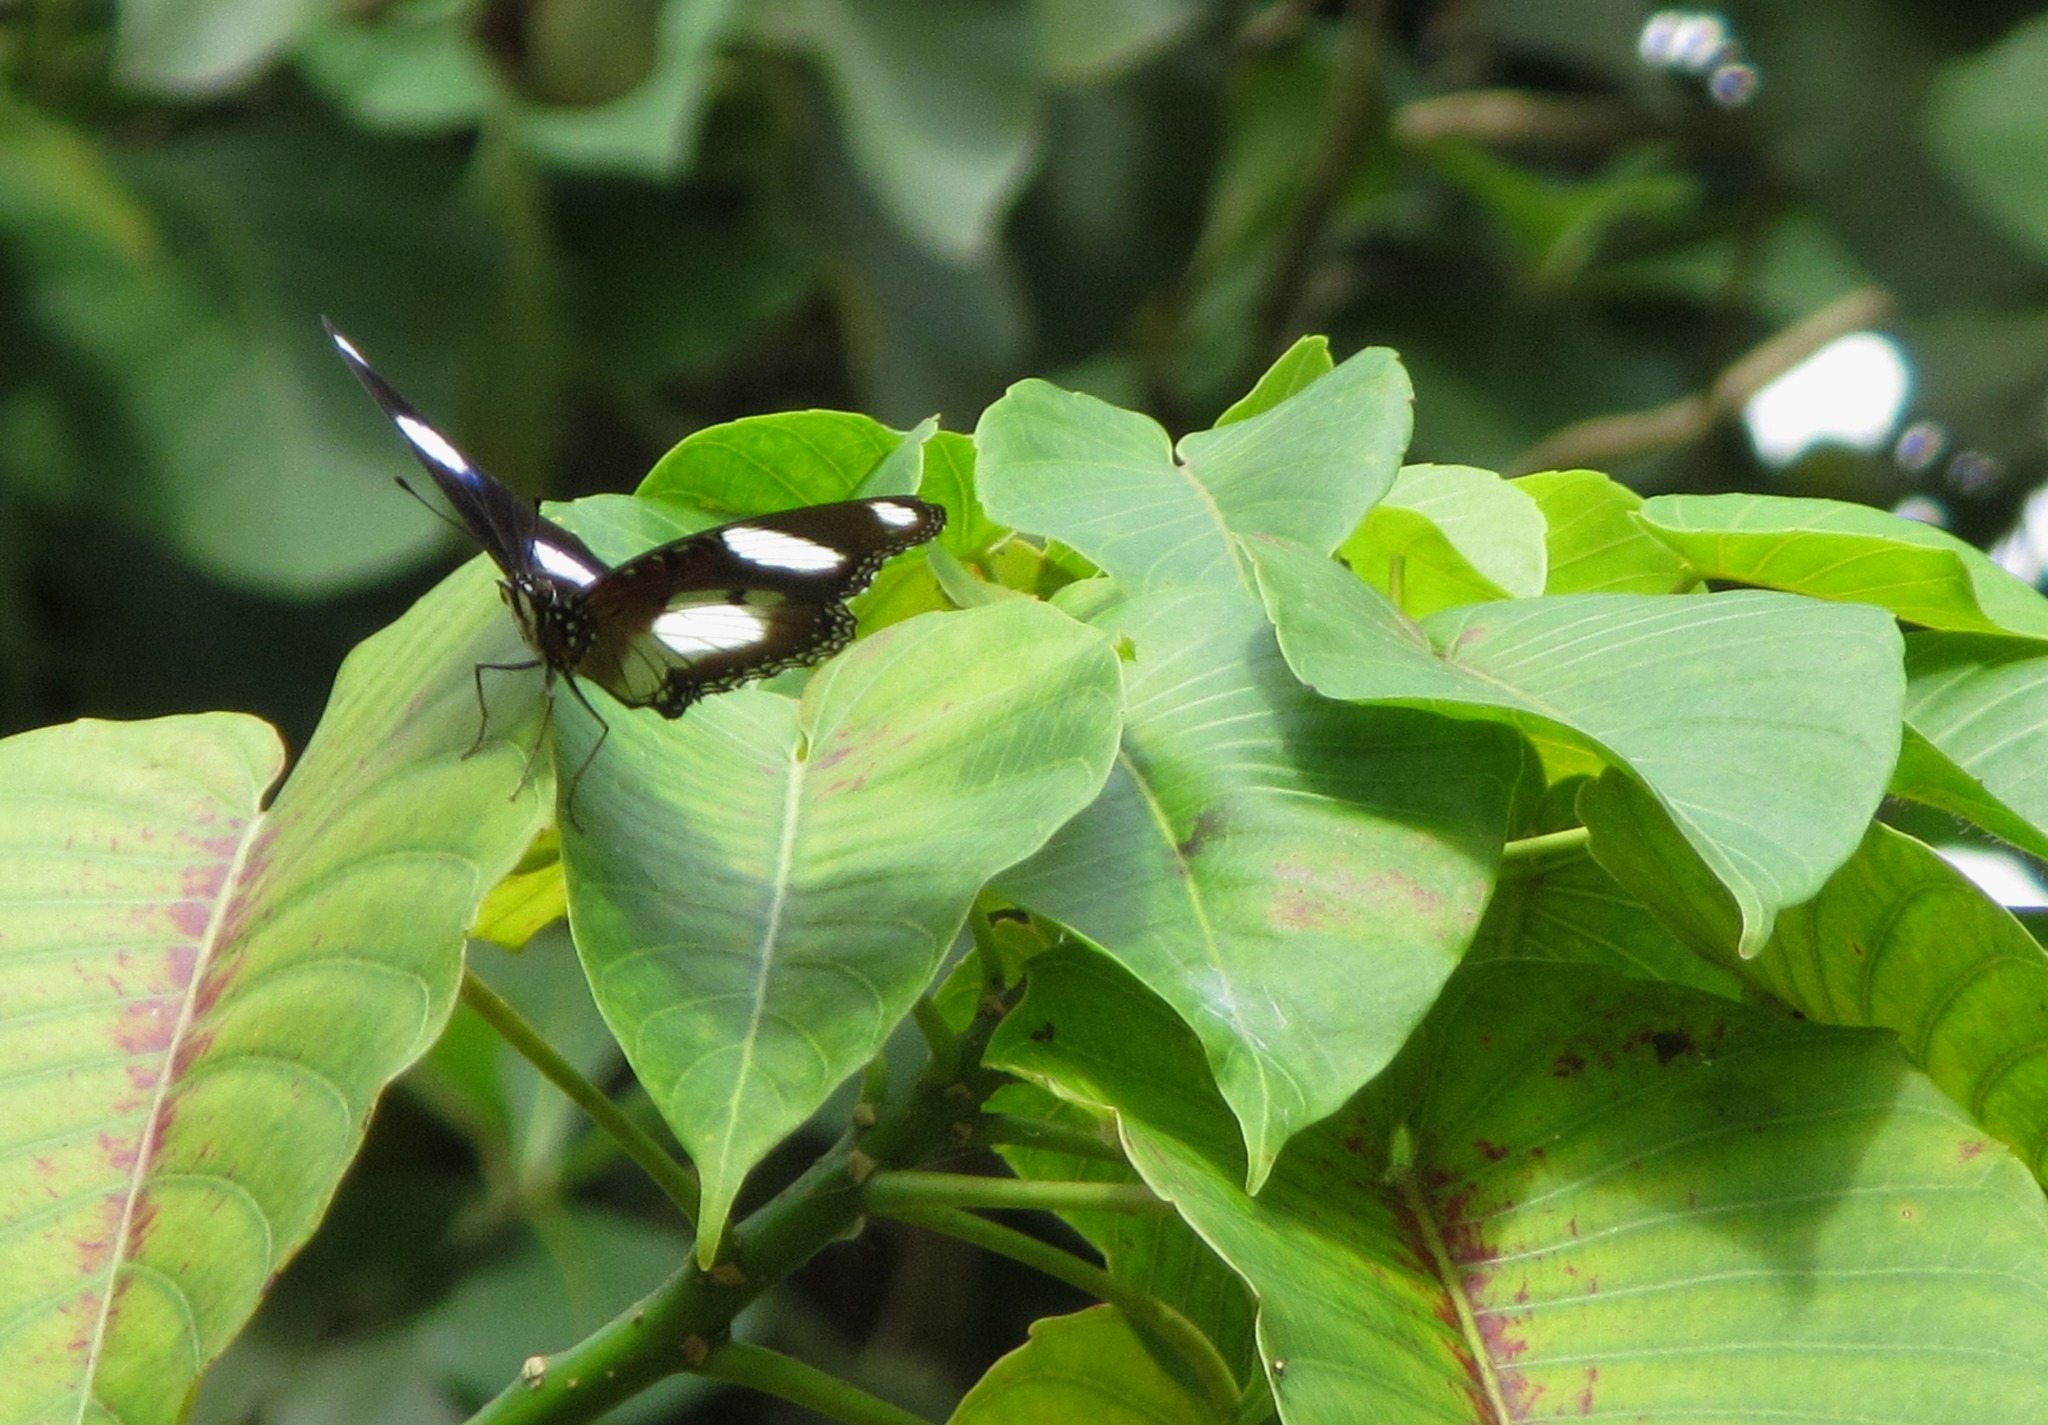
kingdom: Animalia
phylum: Arthropoda
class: Insecta
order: Lepidoptera
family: Nymphalidae
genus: Hypolimnas
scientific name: Hypolimnas misippus
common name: False plain tiger
